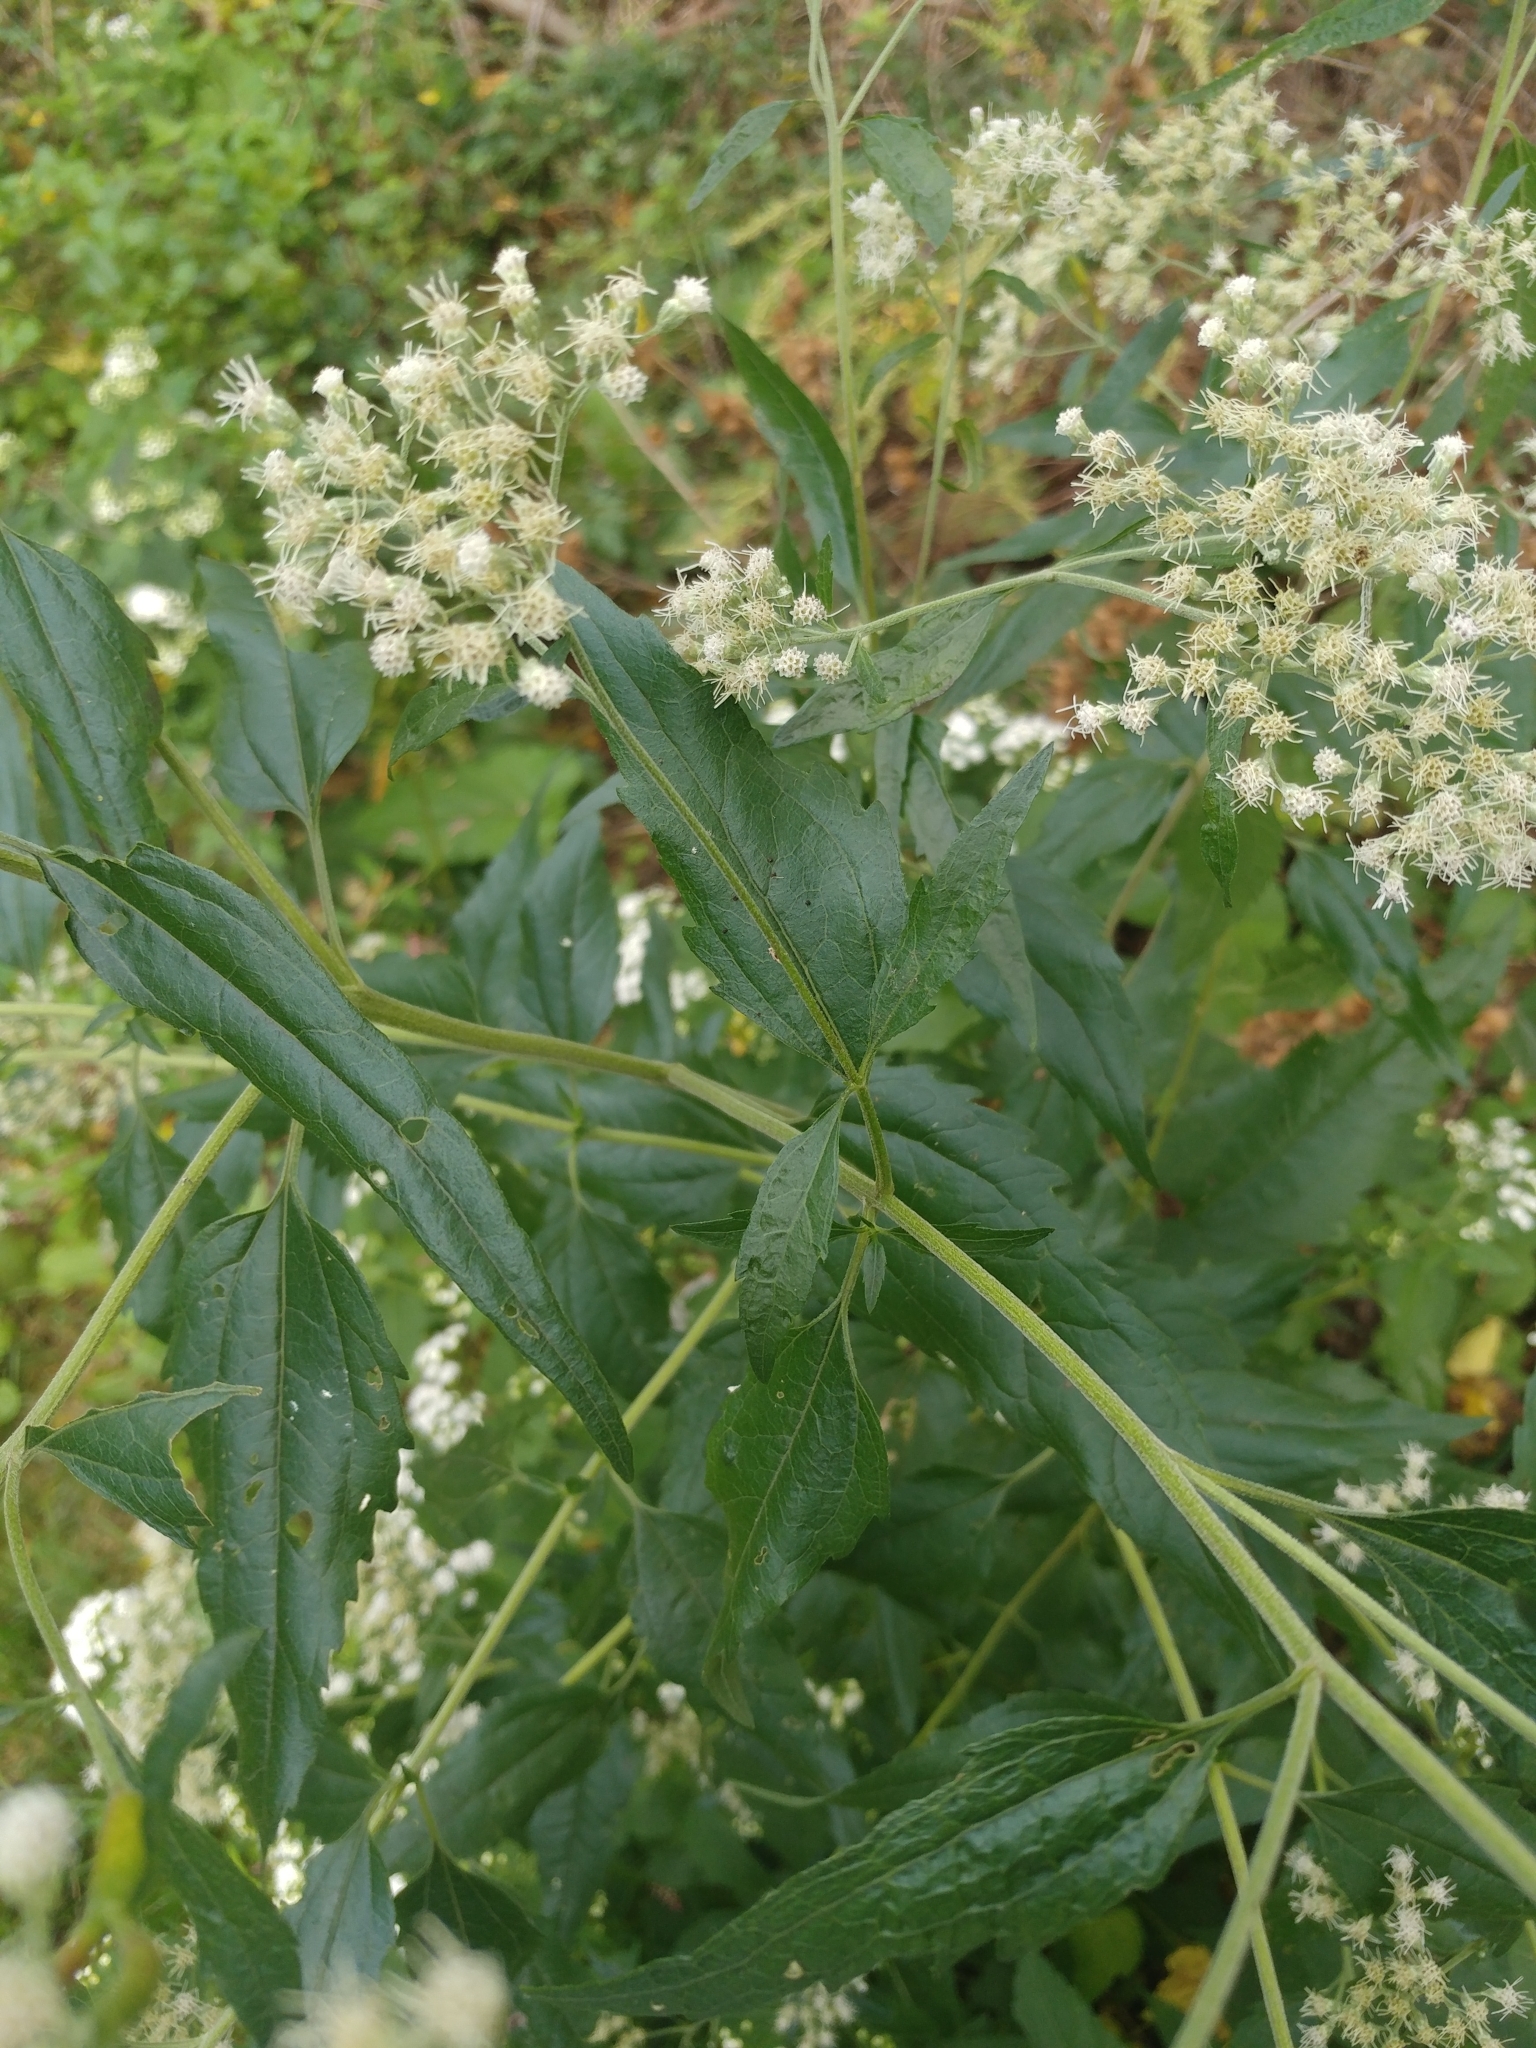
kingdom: Plantae
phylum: Tracheophyta
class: Magnoliopsida
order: Asterales
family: Asteraceae
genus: Eupatorium
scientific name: Eupatorium serotinum
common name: Late boneset
